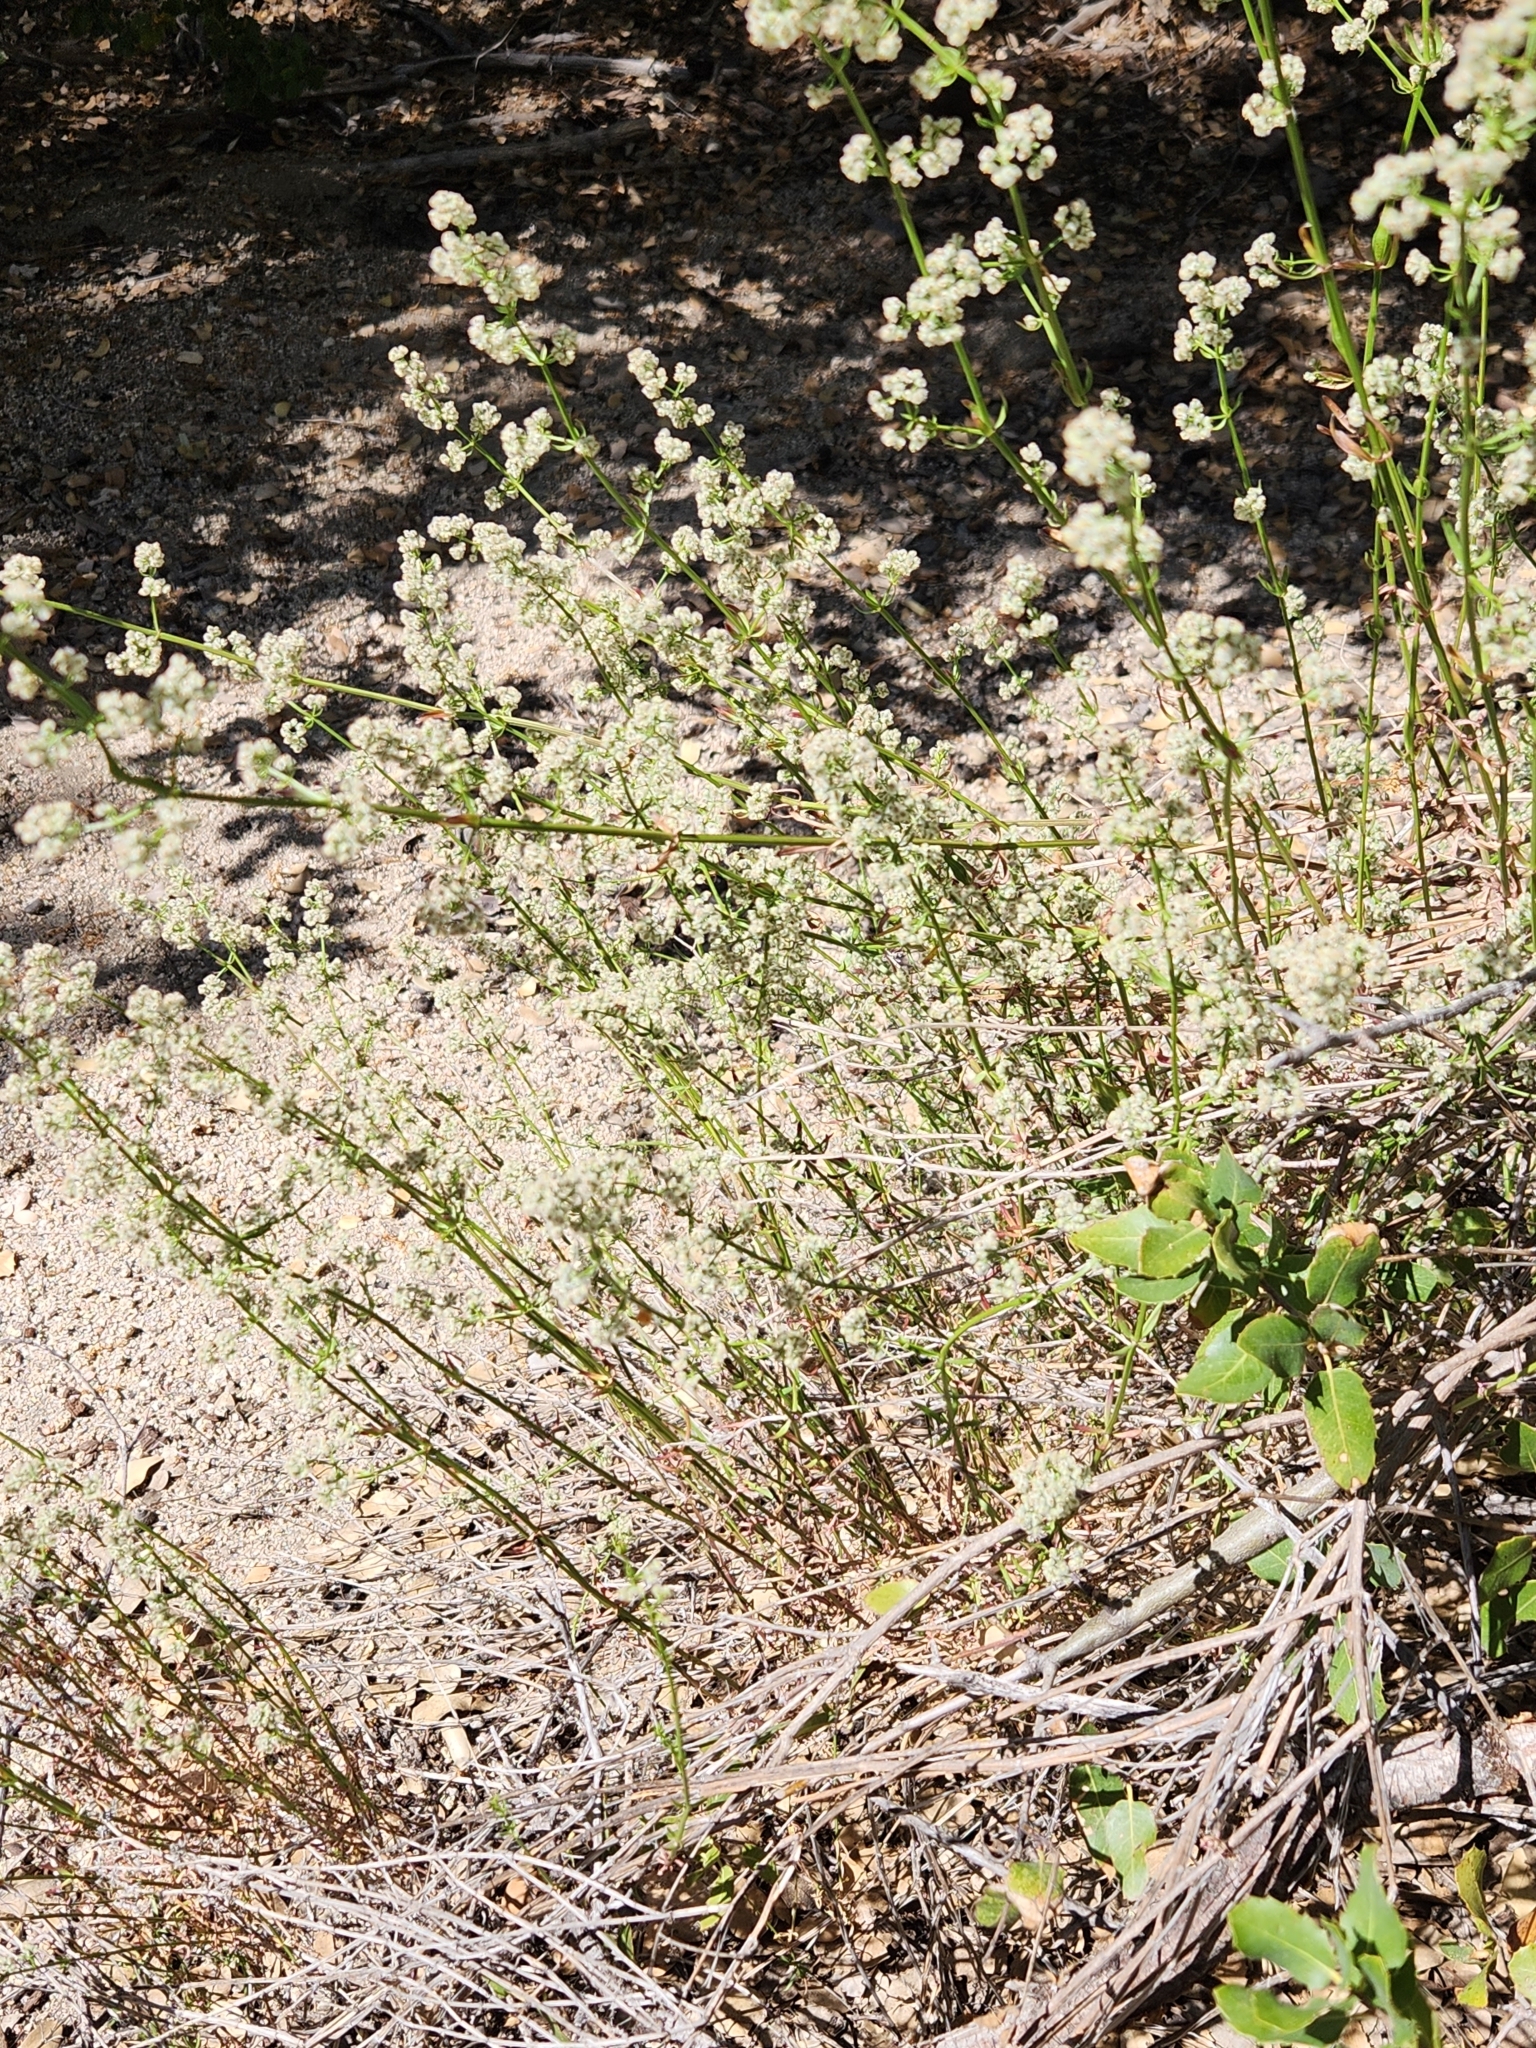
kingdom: Plantae
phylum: Tracheophyta
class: Magnoliopsida
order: Gentianales
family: Rubiaceae
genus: Galium
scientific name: Galium angustifolium
